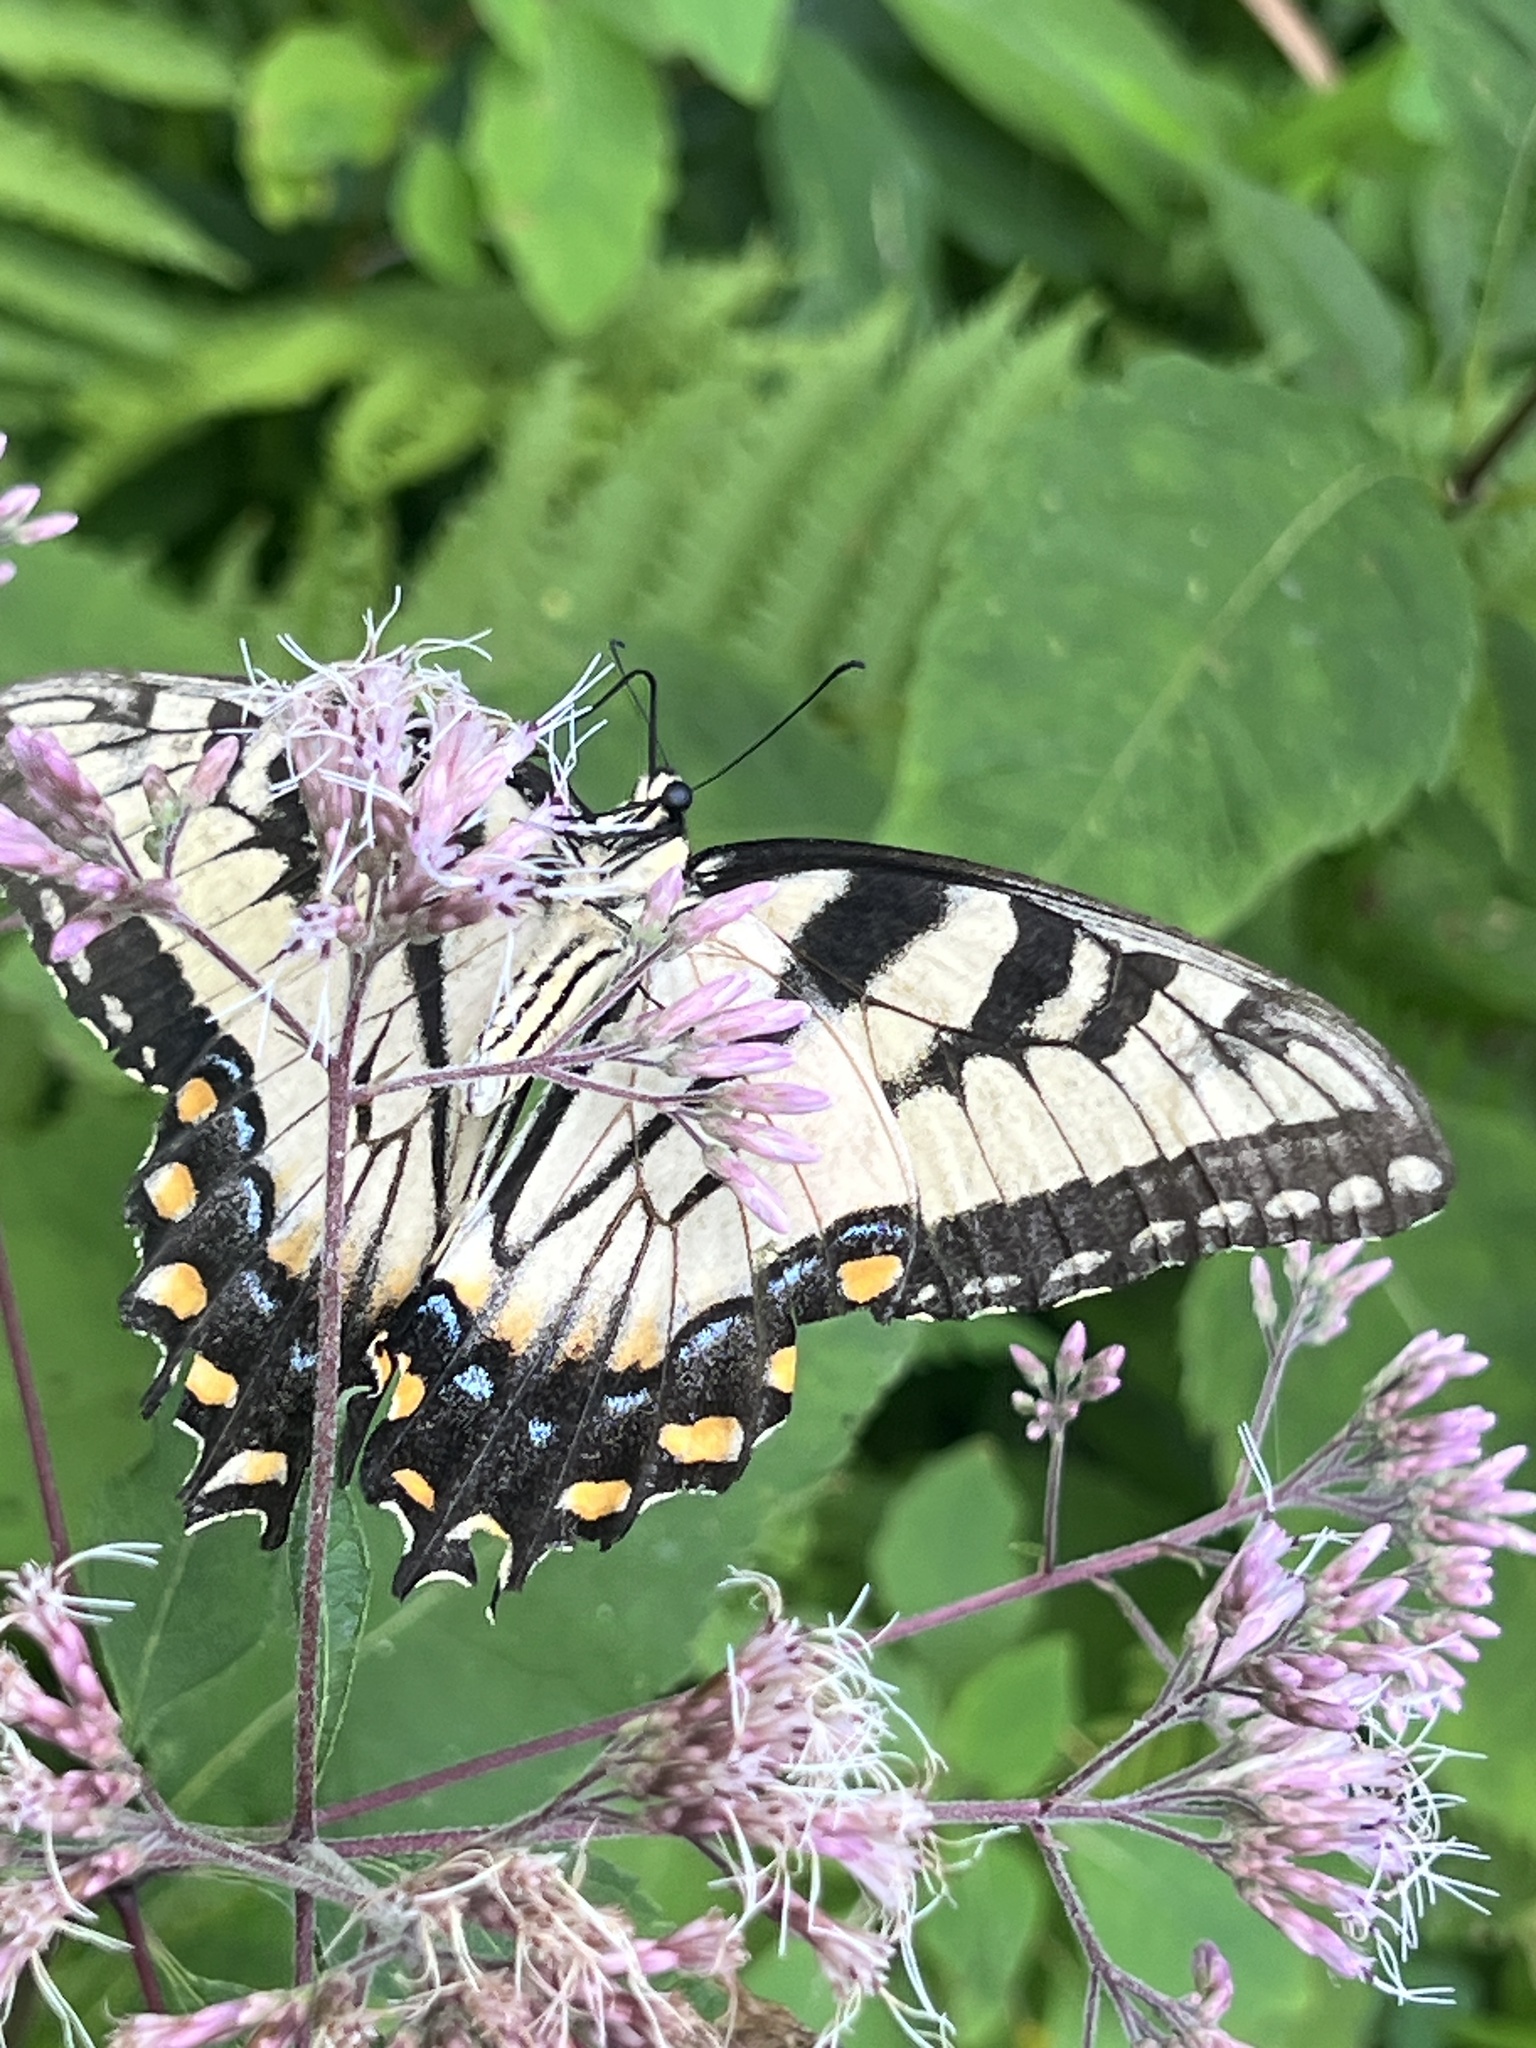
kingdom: Animalia
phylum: Arthropoda
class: Insecta
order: Lepidoptera
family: Papilionidae
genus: Papilio
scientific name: Papilio glaucus
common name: Tiger swallowtail
